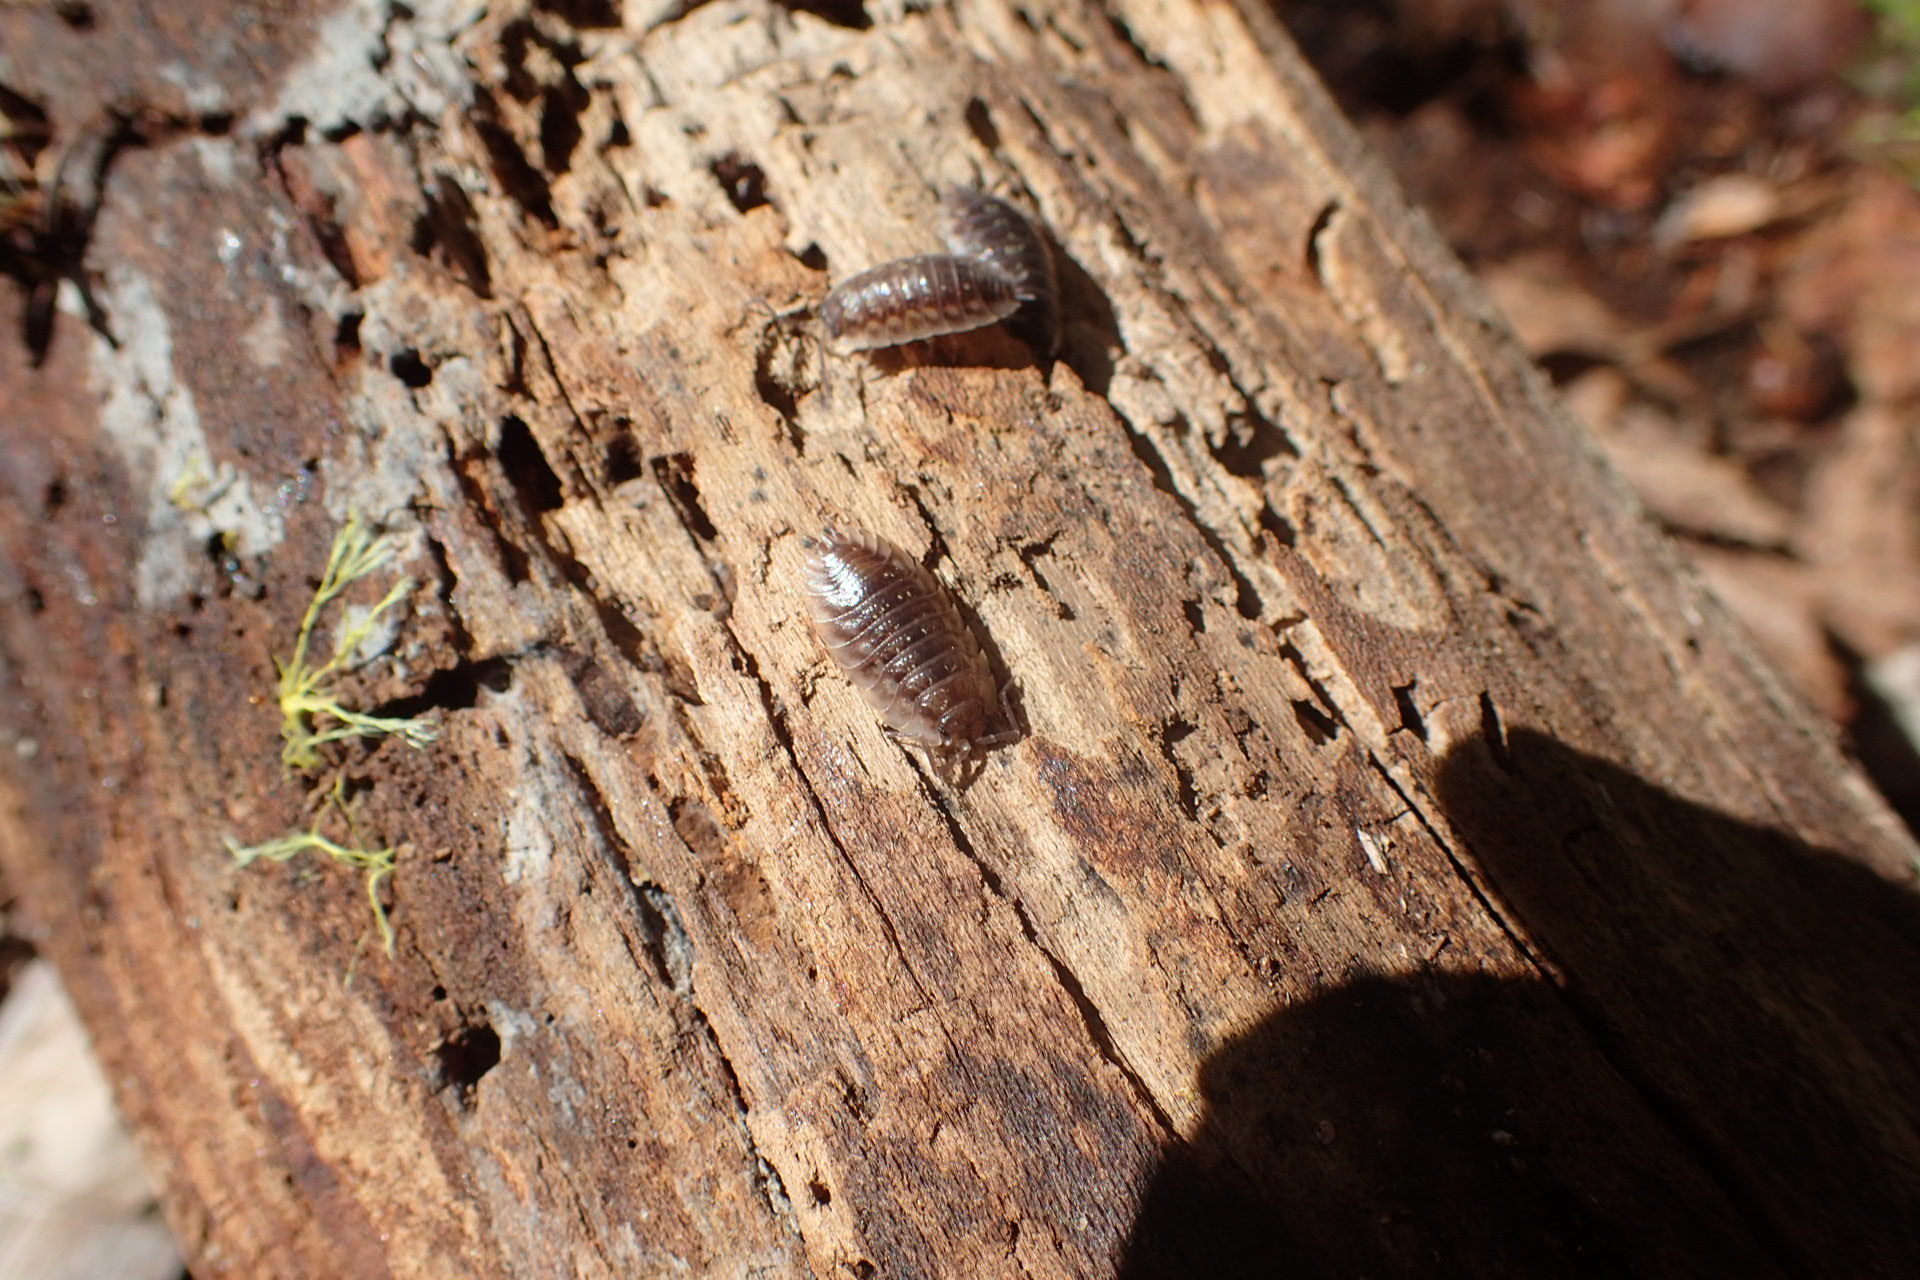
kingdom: Animalia
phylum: Arthropoda
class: Malacostraca
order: Isopoda
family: Oniscidae
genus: Oniscus
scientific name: Oniscus asellus
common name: Common shiny woodlouse
